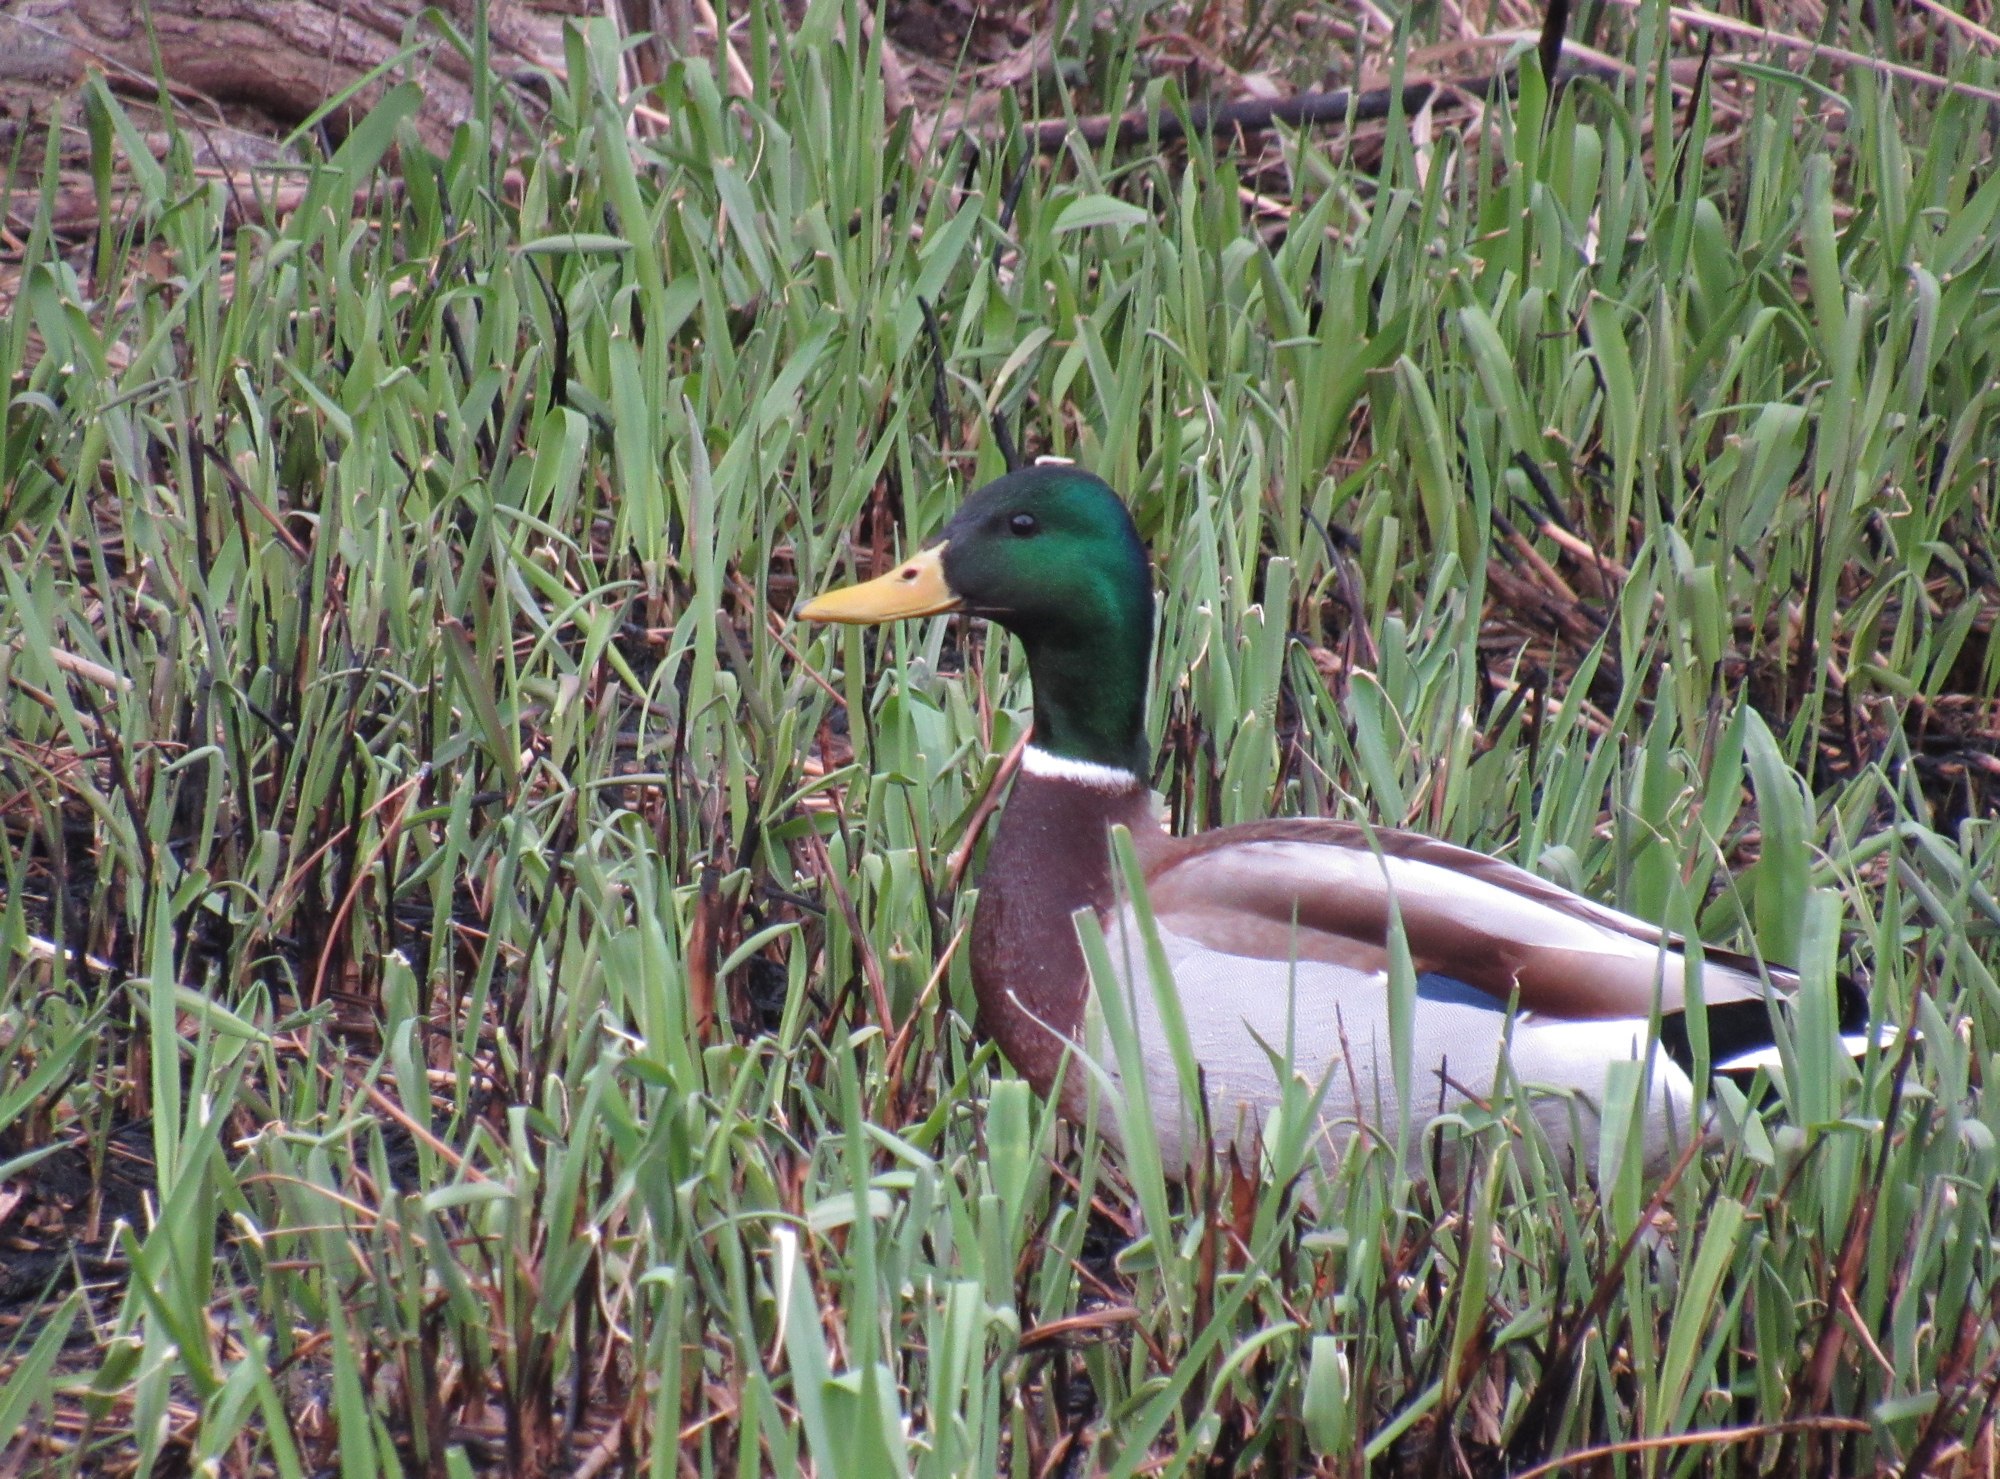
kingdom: Animalia
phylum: Chordata
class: Aves
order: Anseriformes
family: Anatidae
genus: Anas
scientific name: Anas platyrhynchos
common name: Mallard
